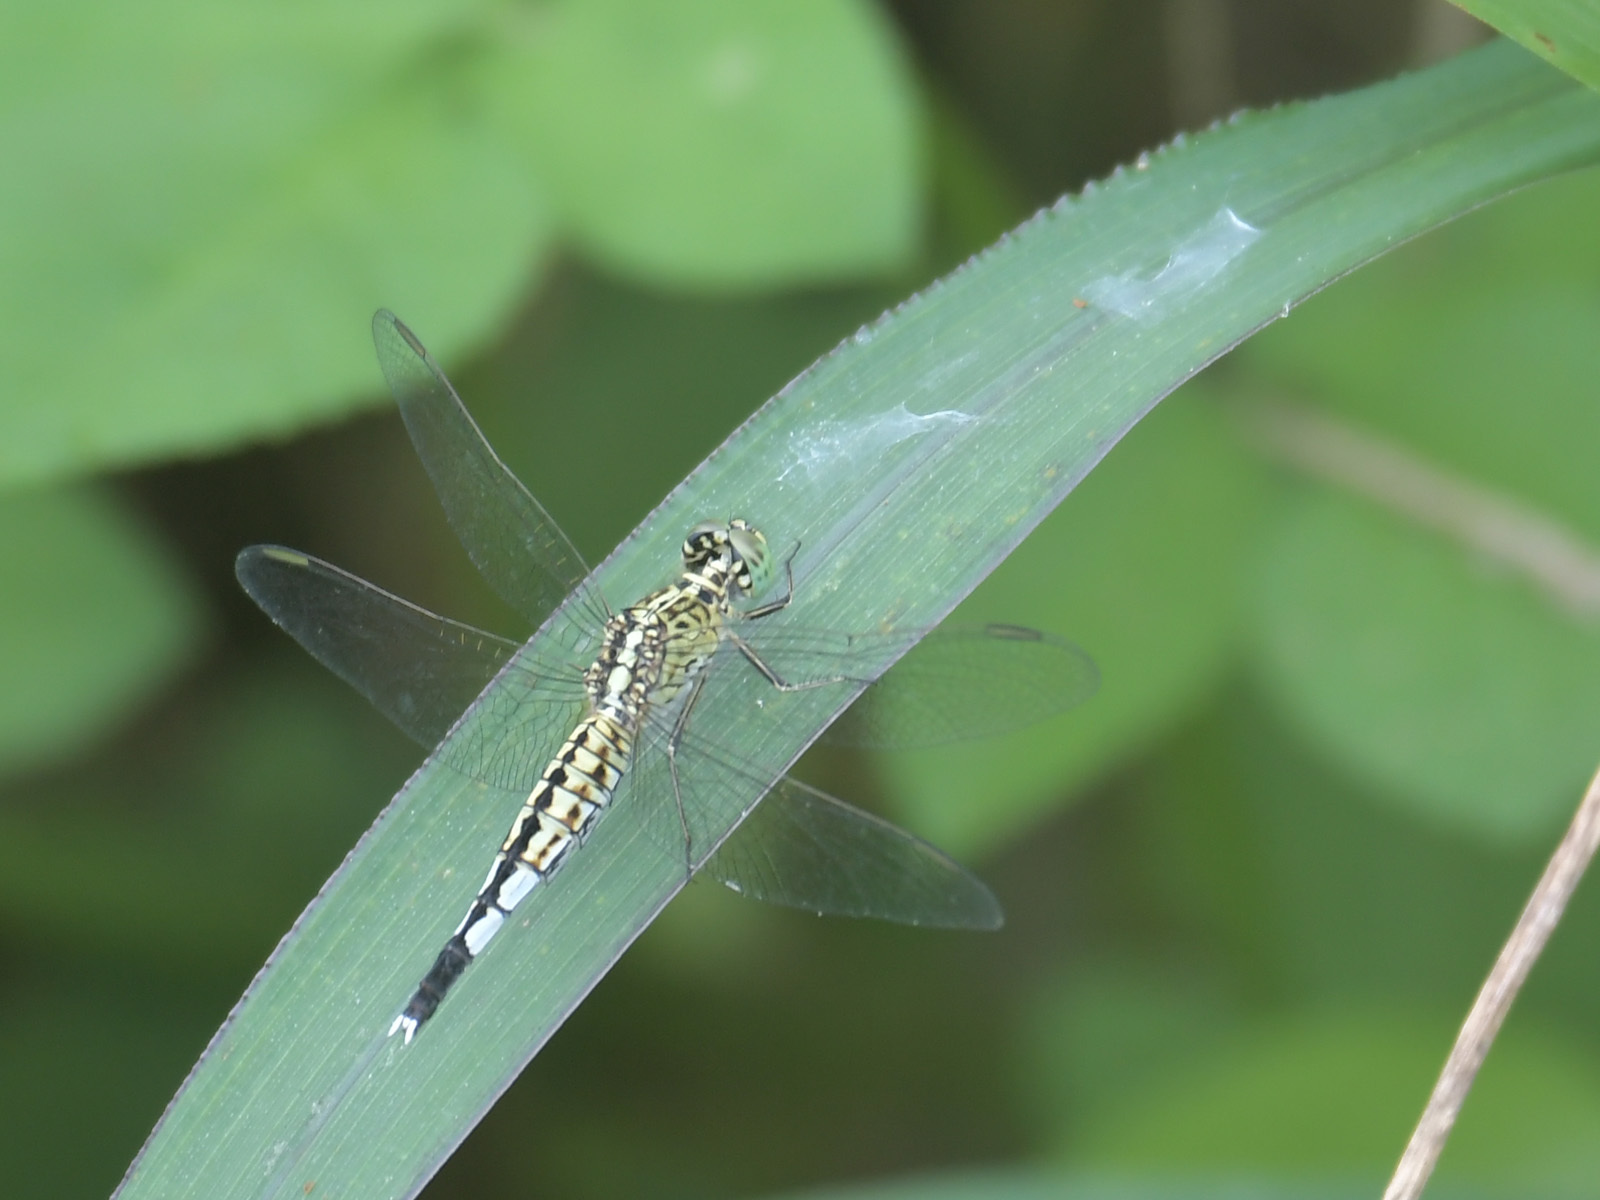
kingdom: Animalia
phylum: Arthropoda
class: Insecta
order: Odonata
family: Libellulidae
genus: Acisoma
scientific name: Acisoma panorpoides
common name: Asian pintail
